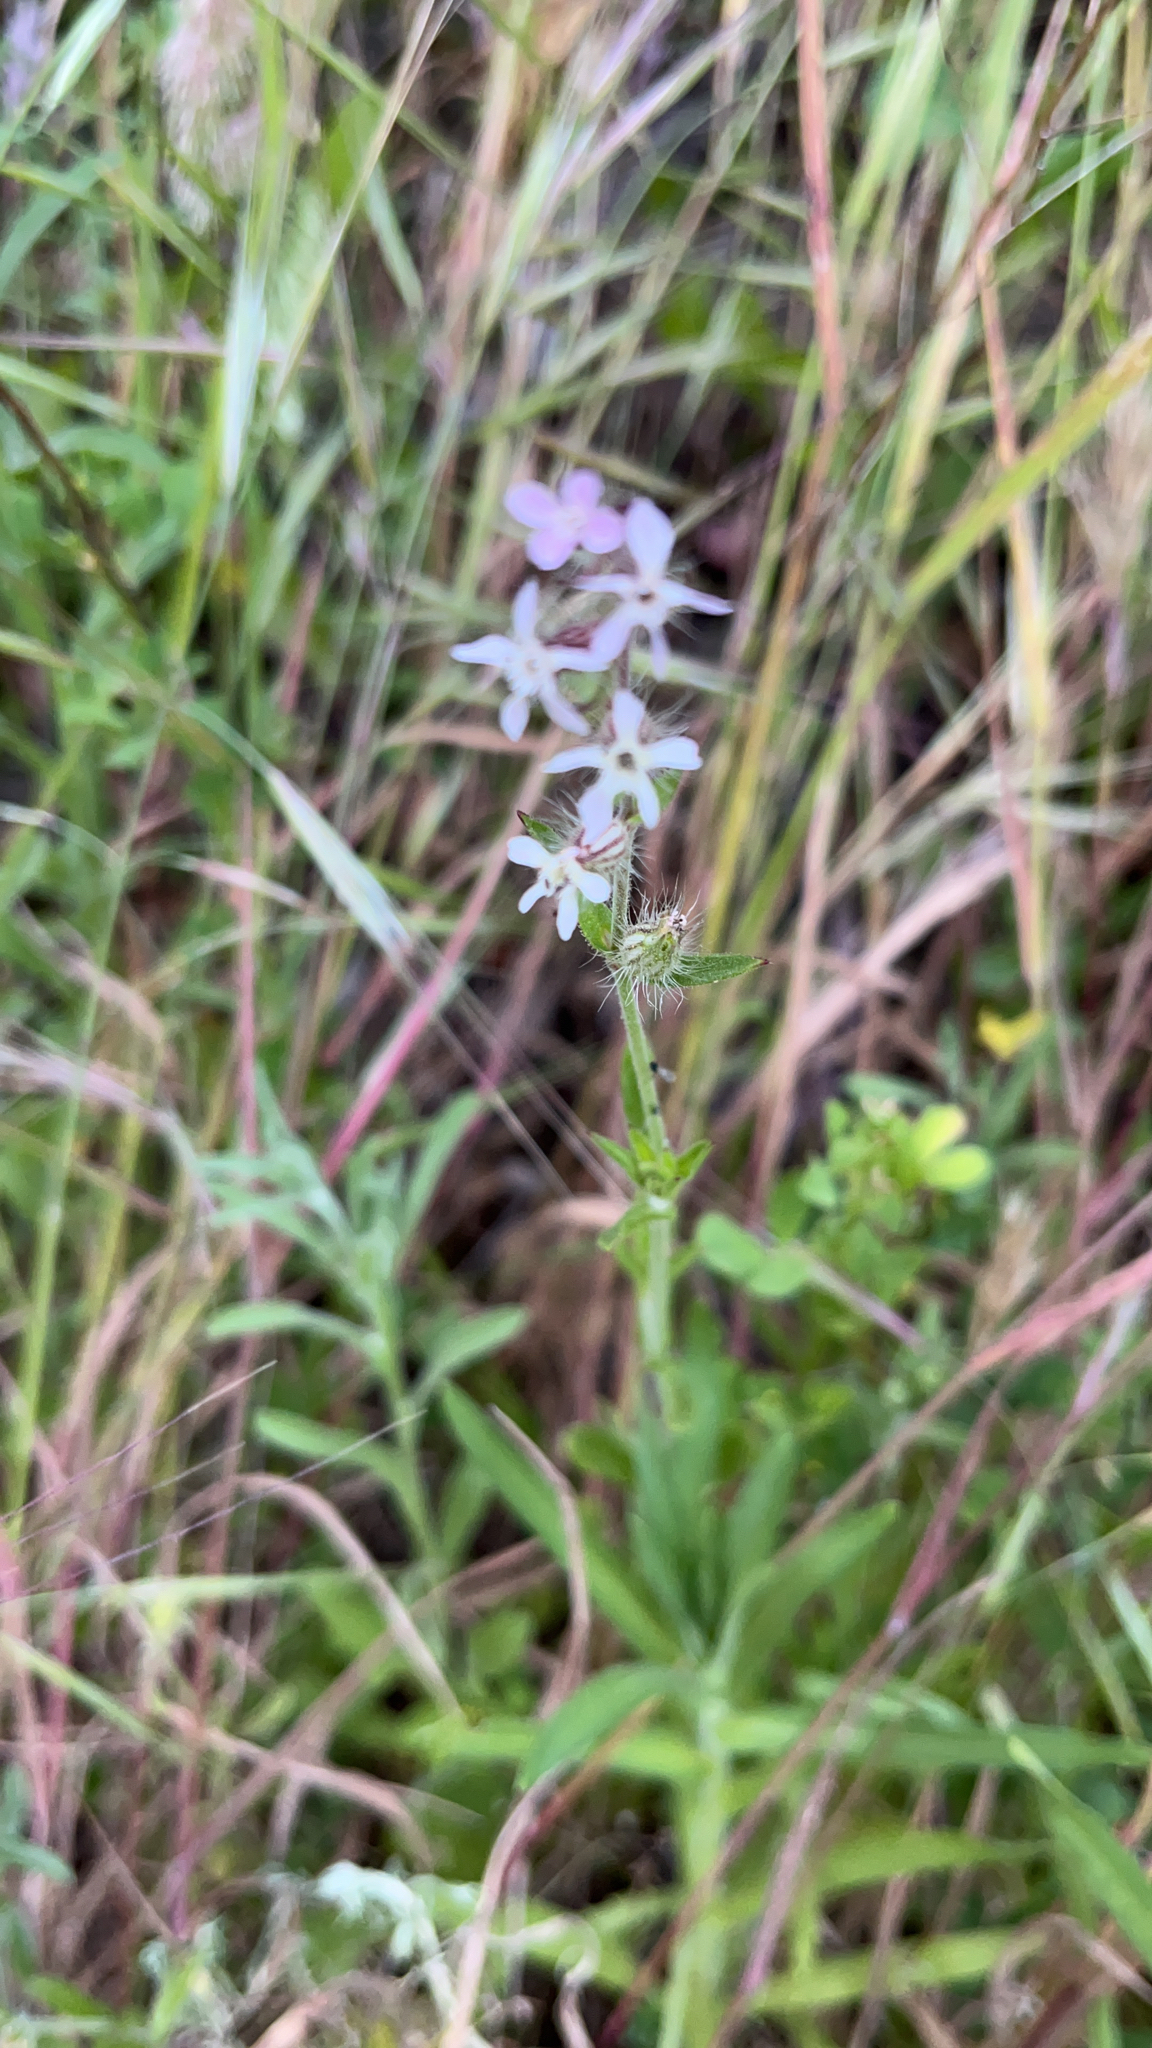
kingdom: Plantae
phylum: Tracheophyta
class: Magnoliopsida
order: Caryophyllales
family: Caryophyllaceae
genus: Silene
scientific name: Silene gallica
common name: Small-flowered catchfly
